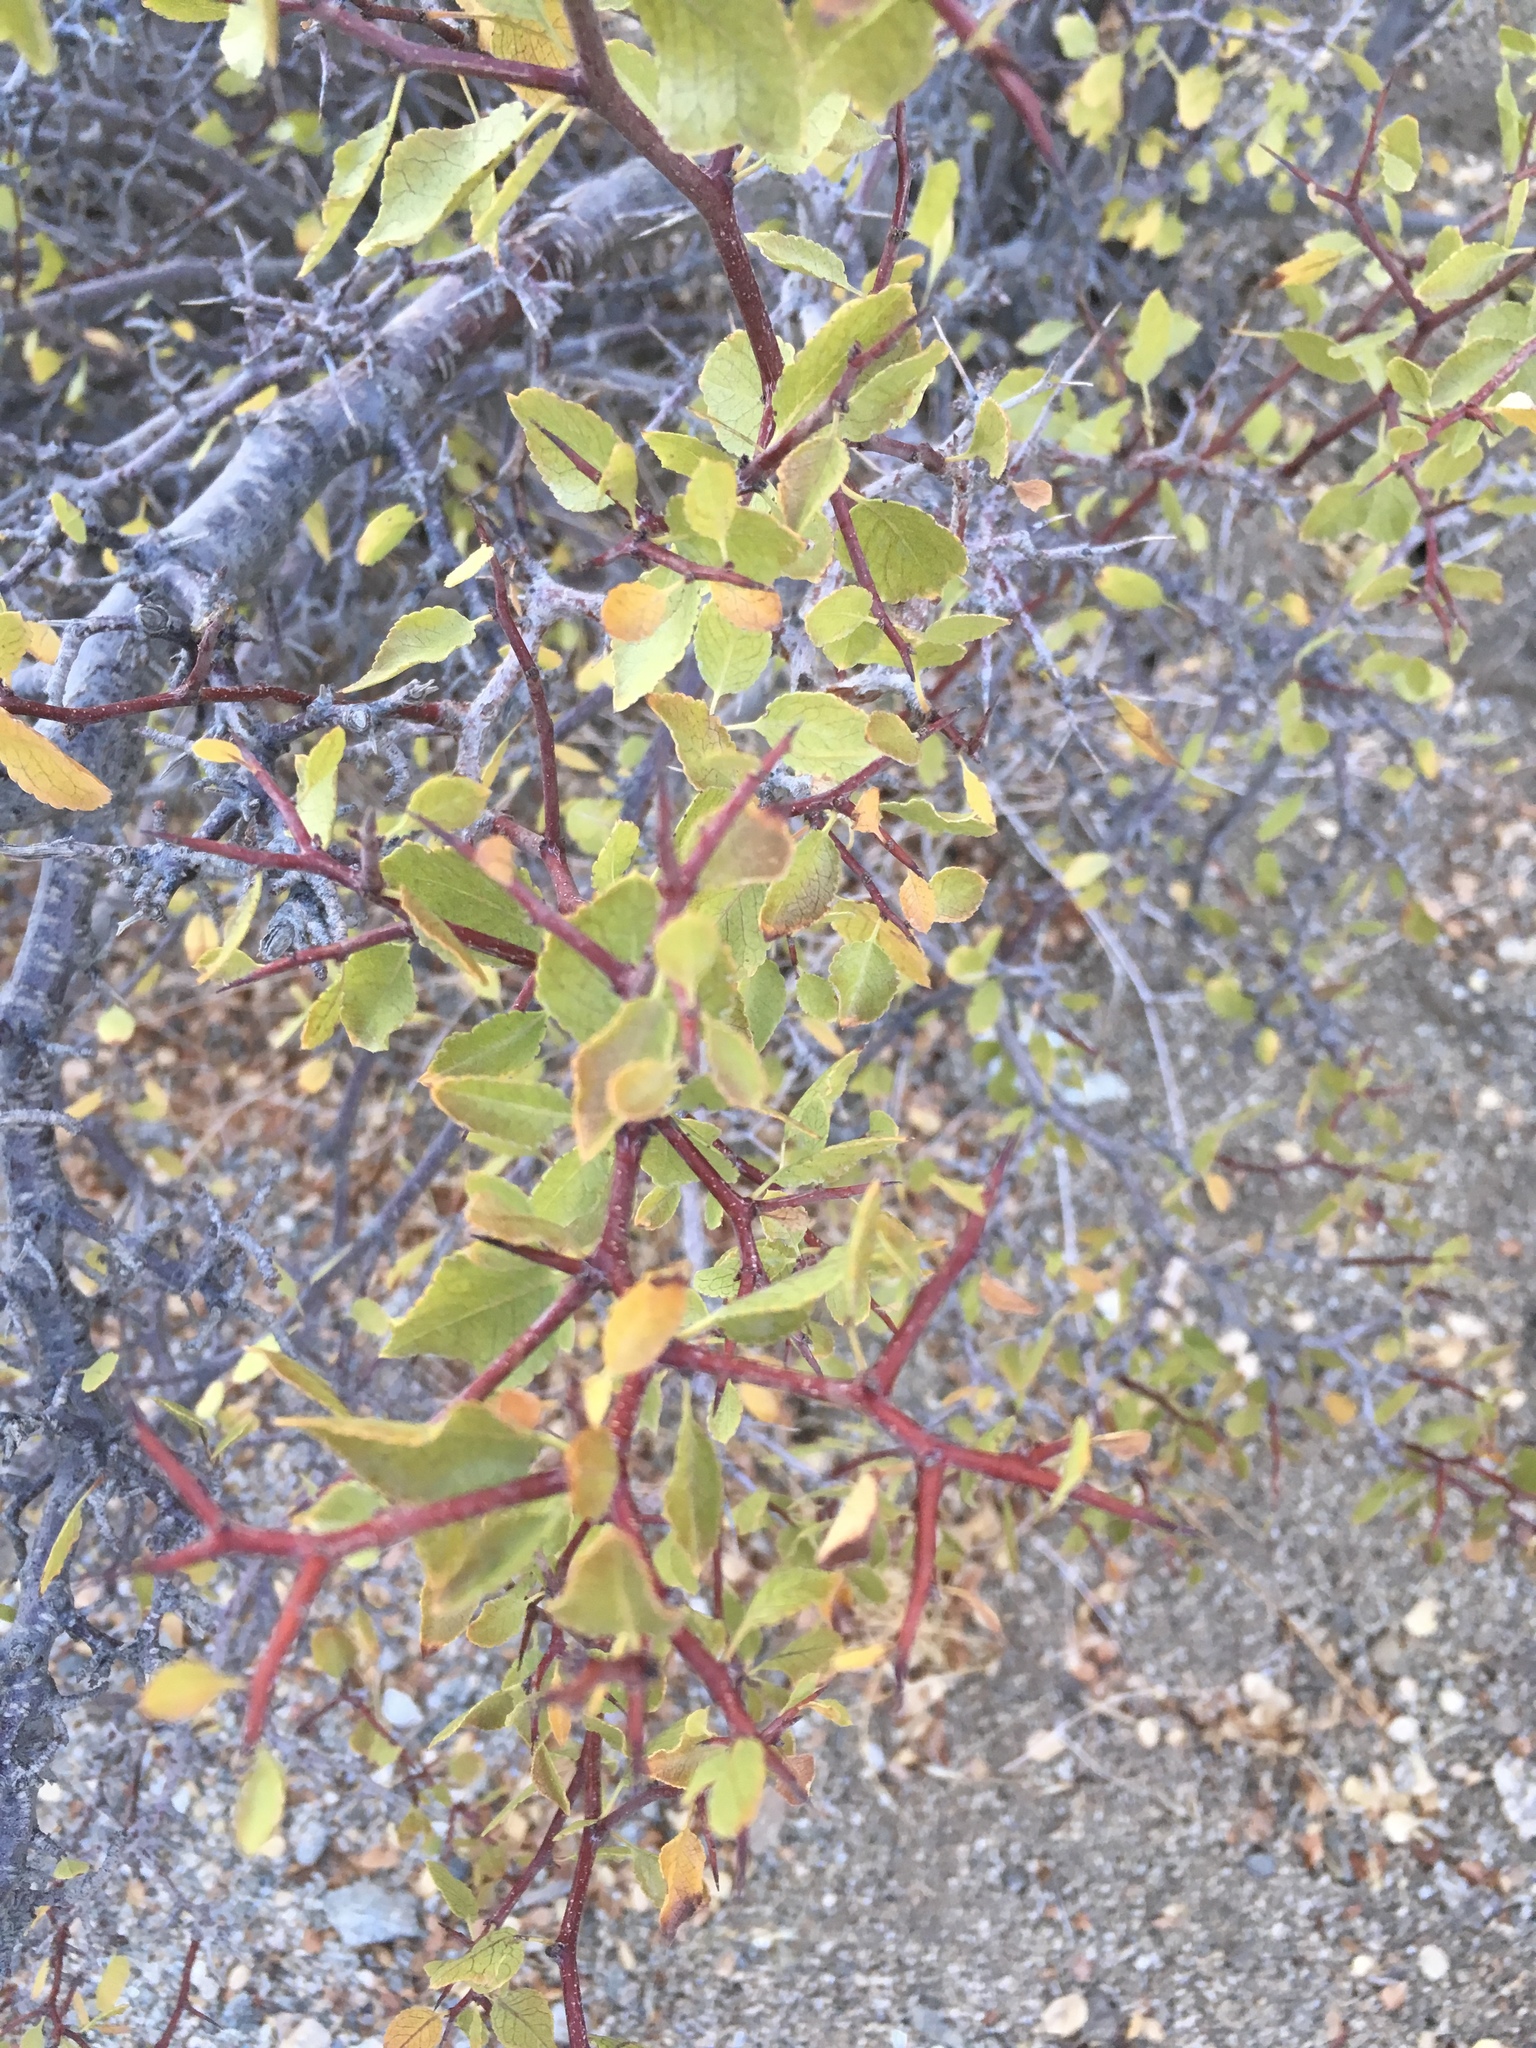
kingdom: Plantae
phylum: Tracheophyta
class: Magnoliopsida
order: Rosales
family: Rosaceae
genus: Prunus
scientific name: Prunus fremontii
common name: Desert apricot
